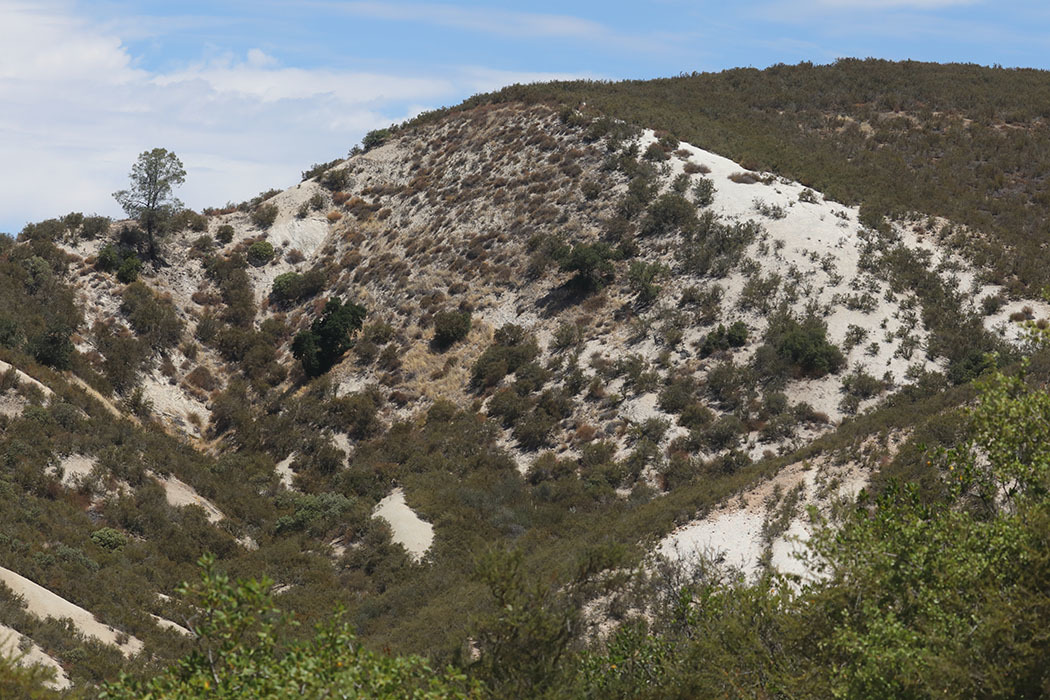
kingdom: Plantae
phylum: Tracheophyta
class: Magnoliopsida
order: Caryophyllales
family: Polygonaceae
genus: Eriogonum
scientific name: Eriogonum nudum
